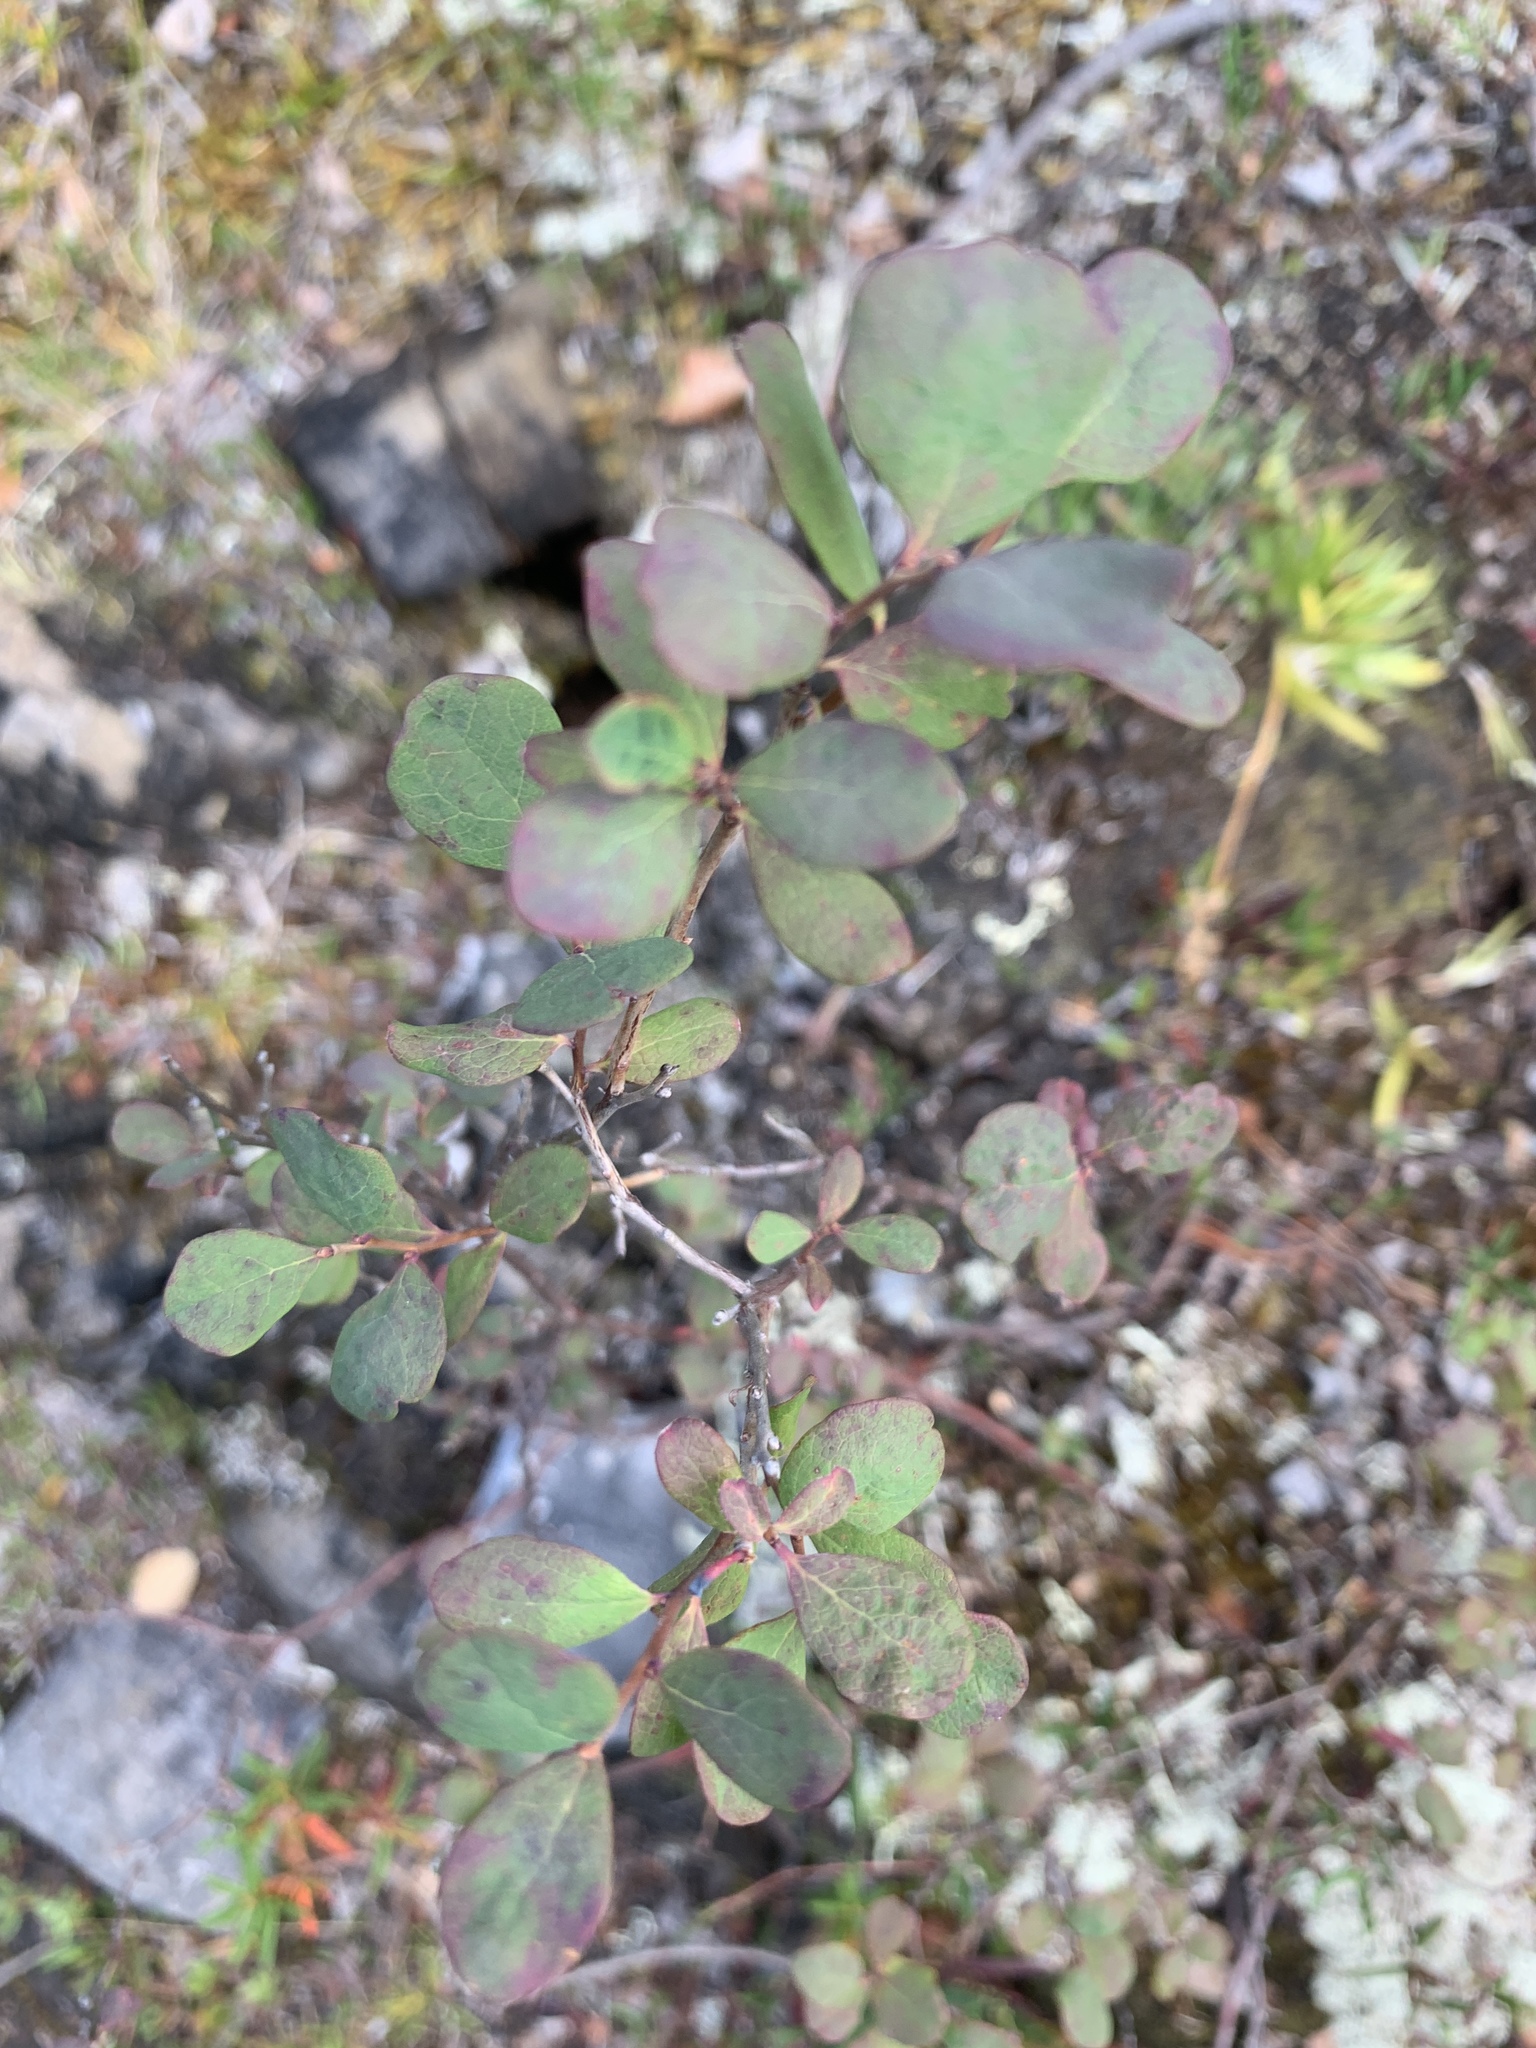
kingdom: Plantae
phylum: Tracheophyta
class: Magnoliopsida
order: Ericales
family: Ericaceae
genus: Vaccinium
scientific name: Vaccinium uliginosum
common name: Bog bilberry
